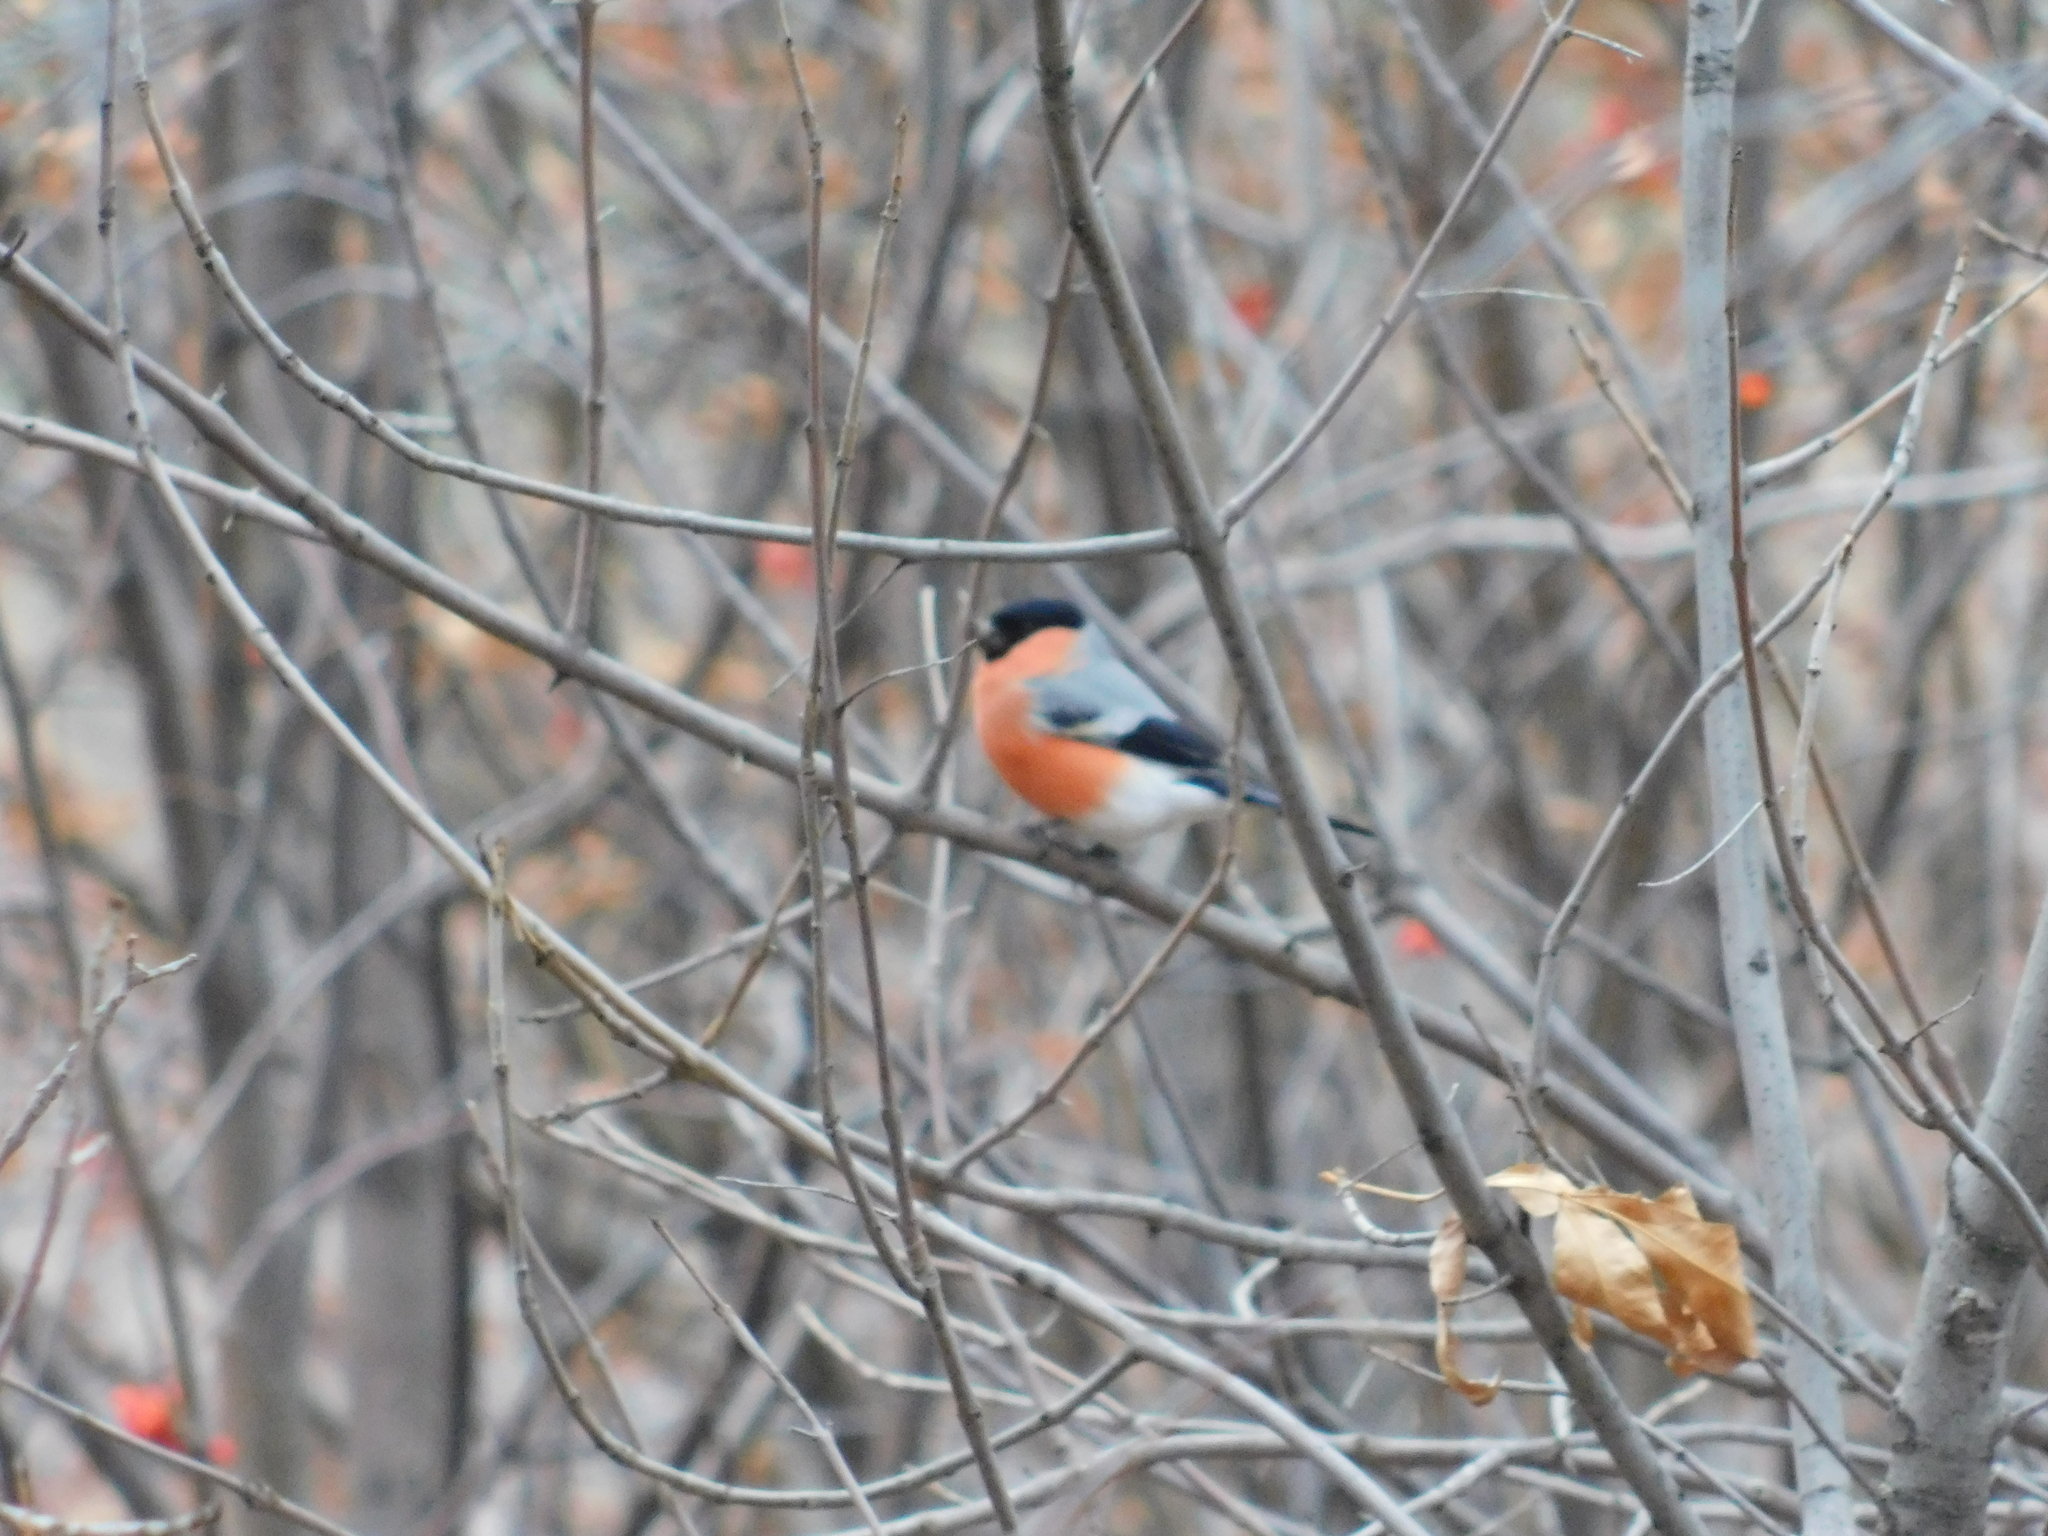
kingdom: Animalia
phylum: Chordata
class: Aves
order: Passeriformes
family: Fringillidae
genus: Pyrrhula
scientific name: Pyrrhula pyrrhula
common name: Eurasian bullfinch
